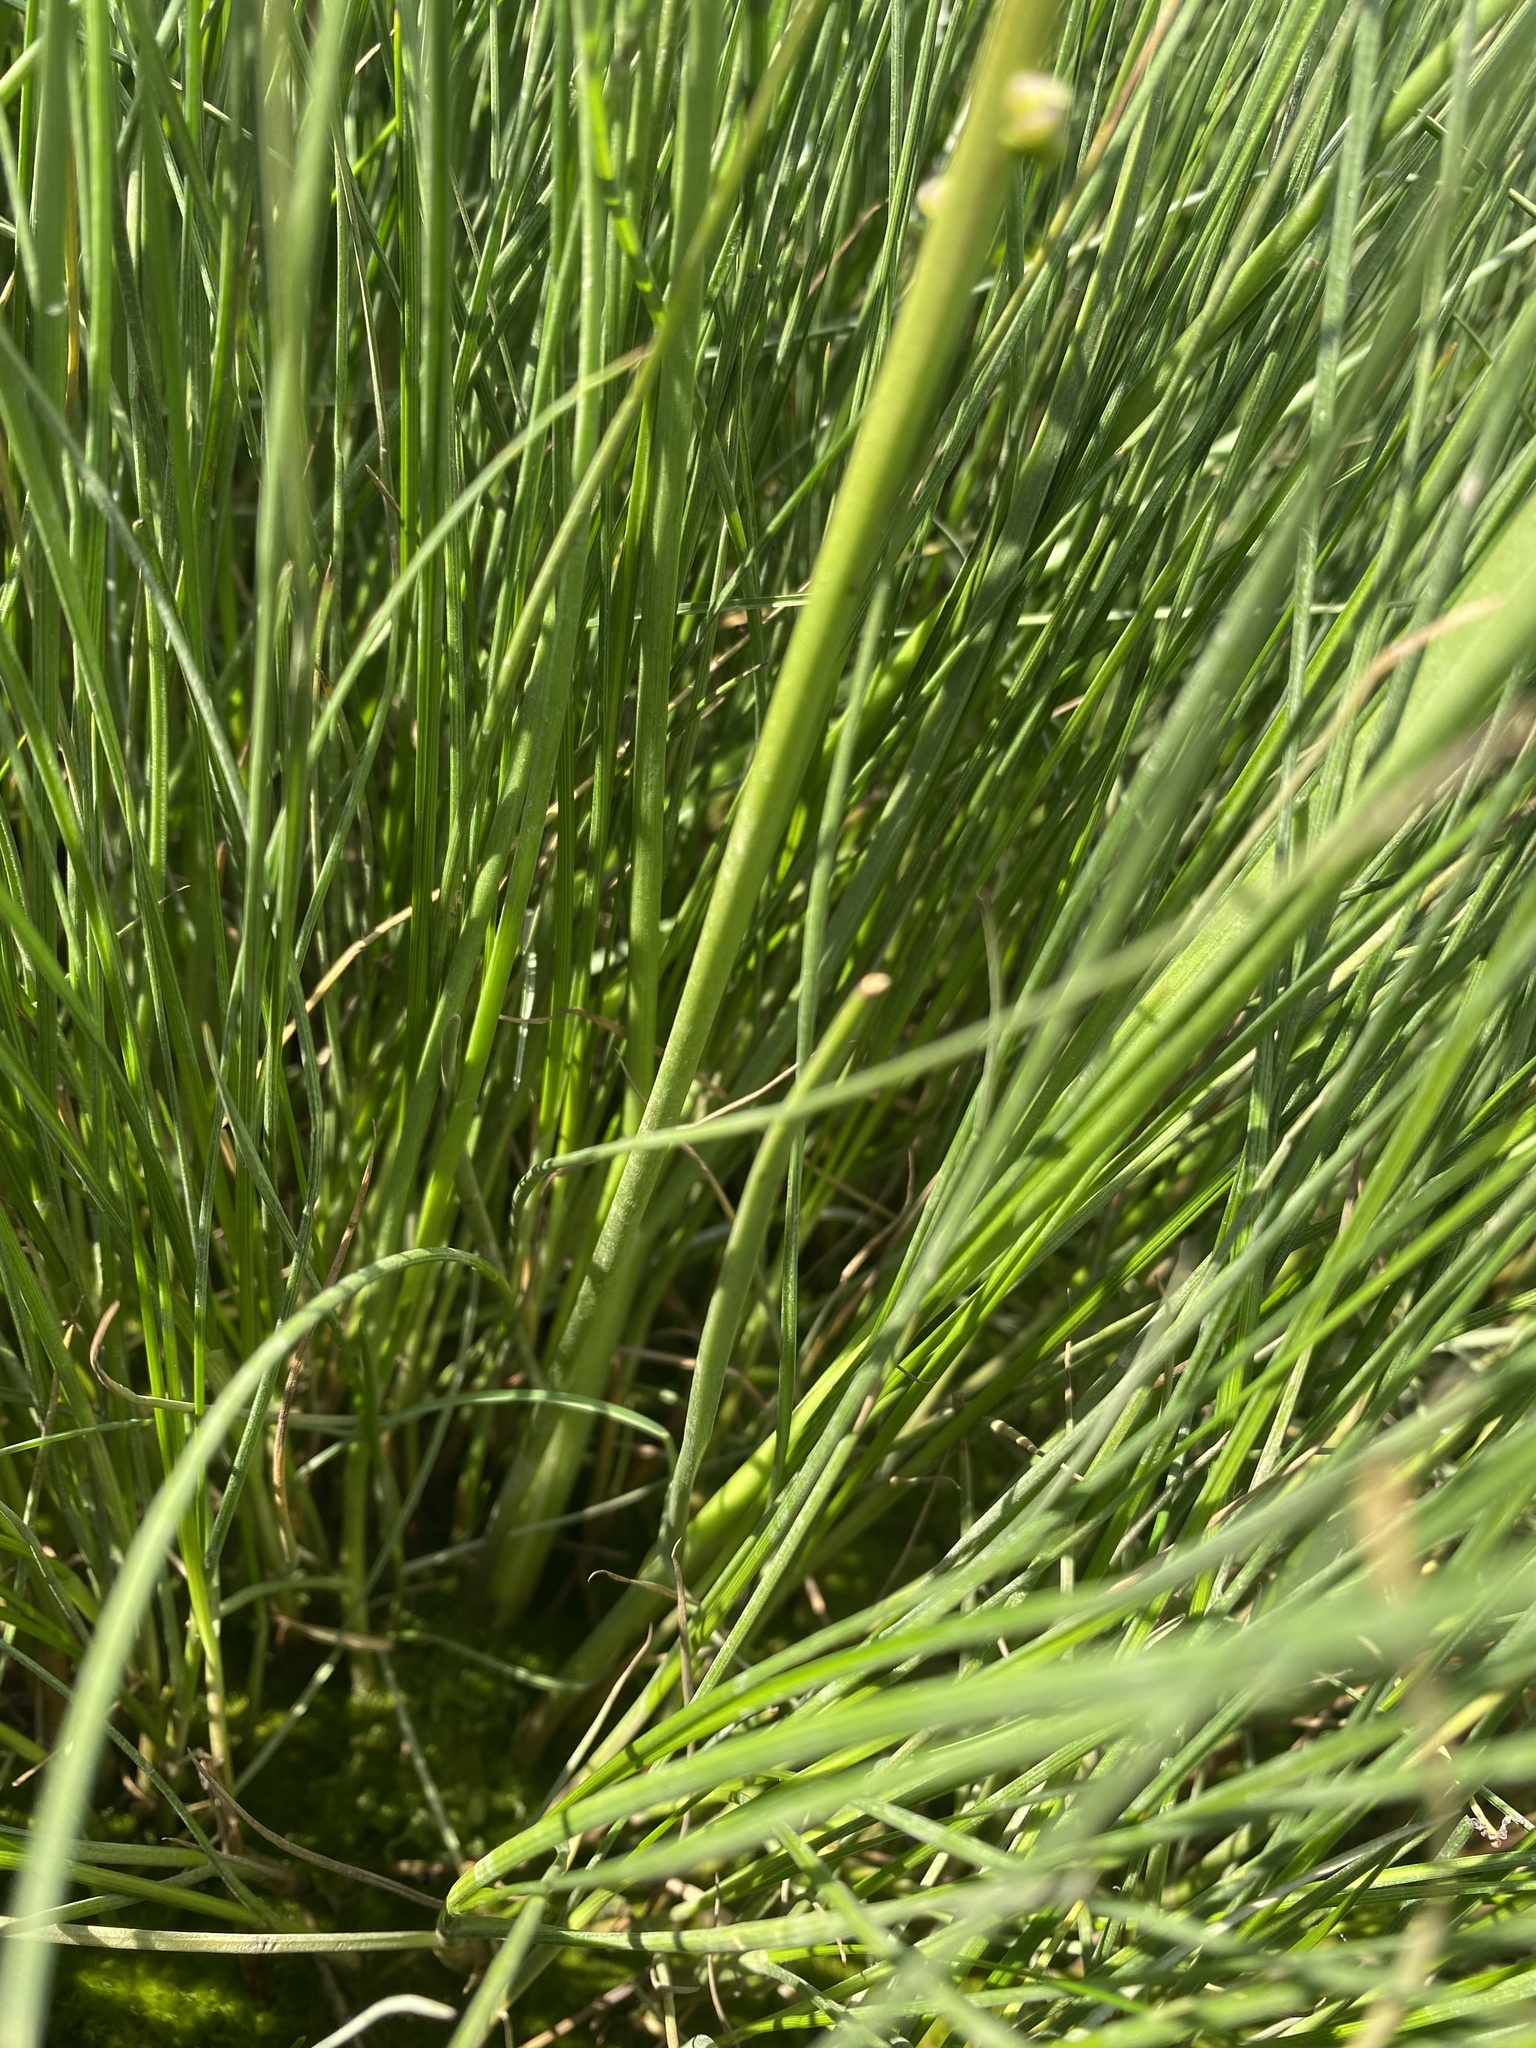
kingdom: Plantae
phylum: Tracheophyta
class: Liliopsida
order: Alismatales
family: Juncaginaceae
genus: Triglochin
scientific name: Triglochin maritima
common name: Sea arrowgrass
